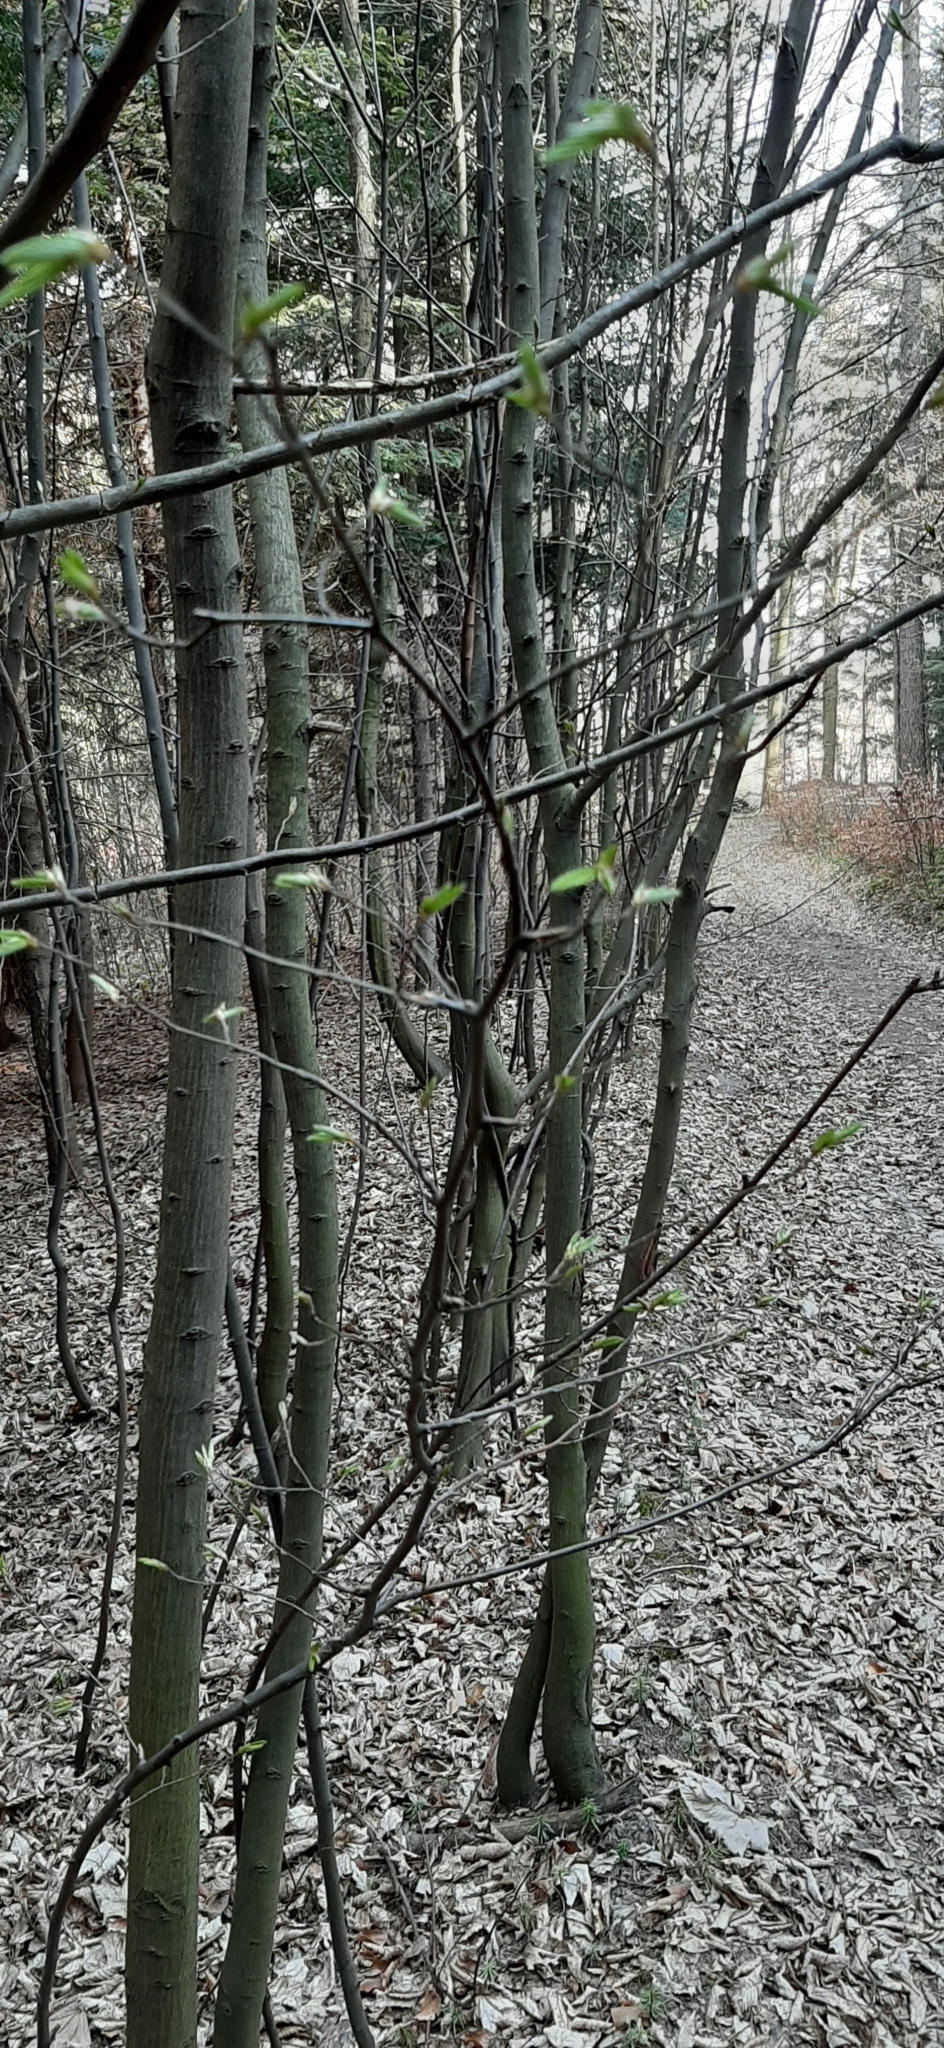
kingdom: Plantae
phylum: Tracheophyta
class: Magnoliopsida
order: Fagales
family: Betulaceae
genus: Carpinus
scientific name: Carpinus betulus
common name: Hornbeam
